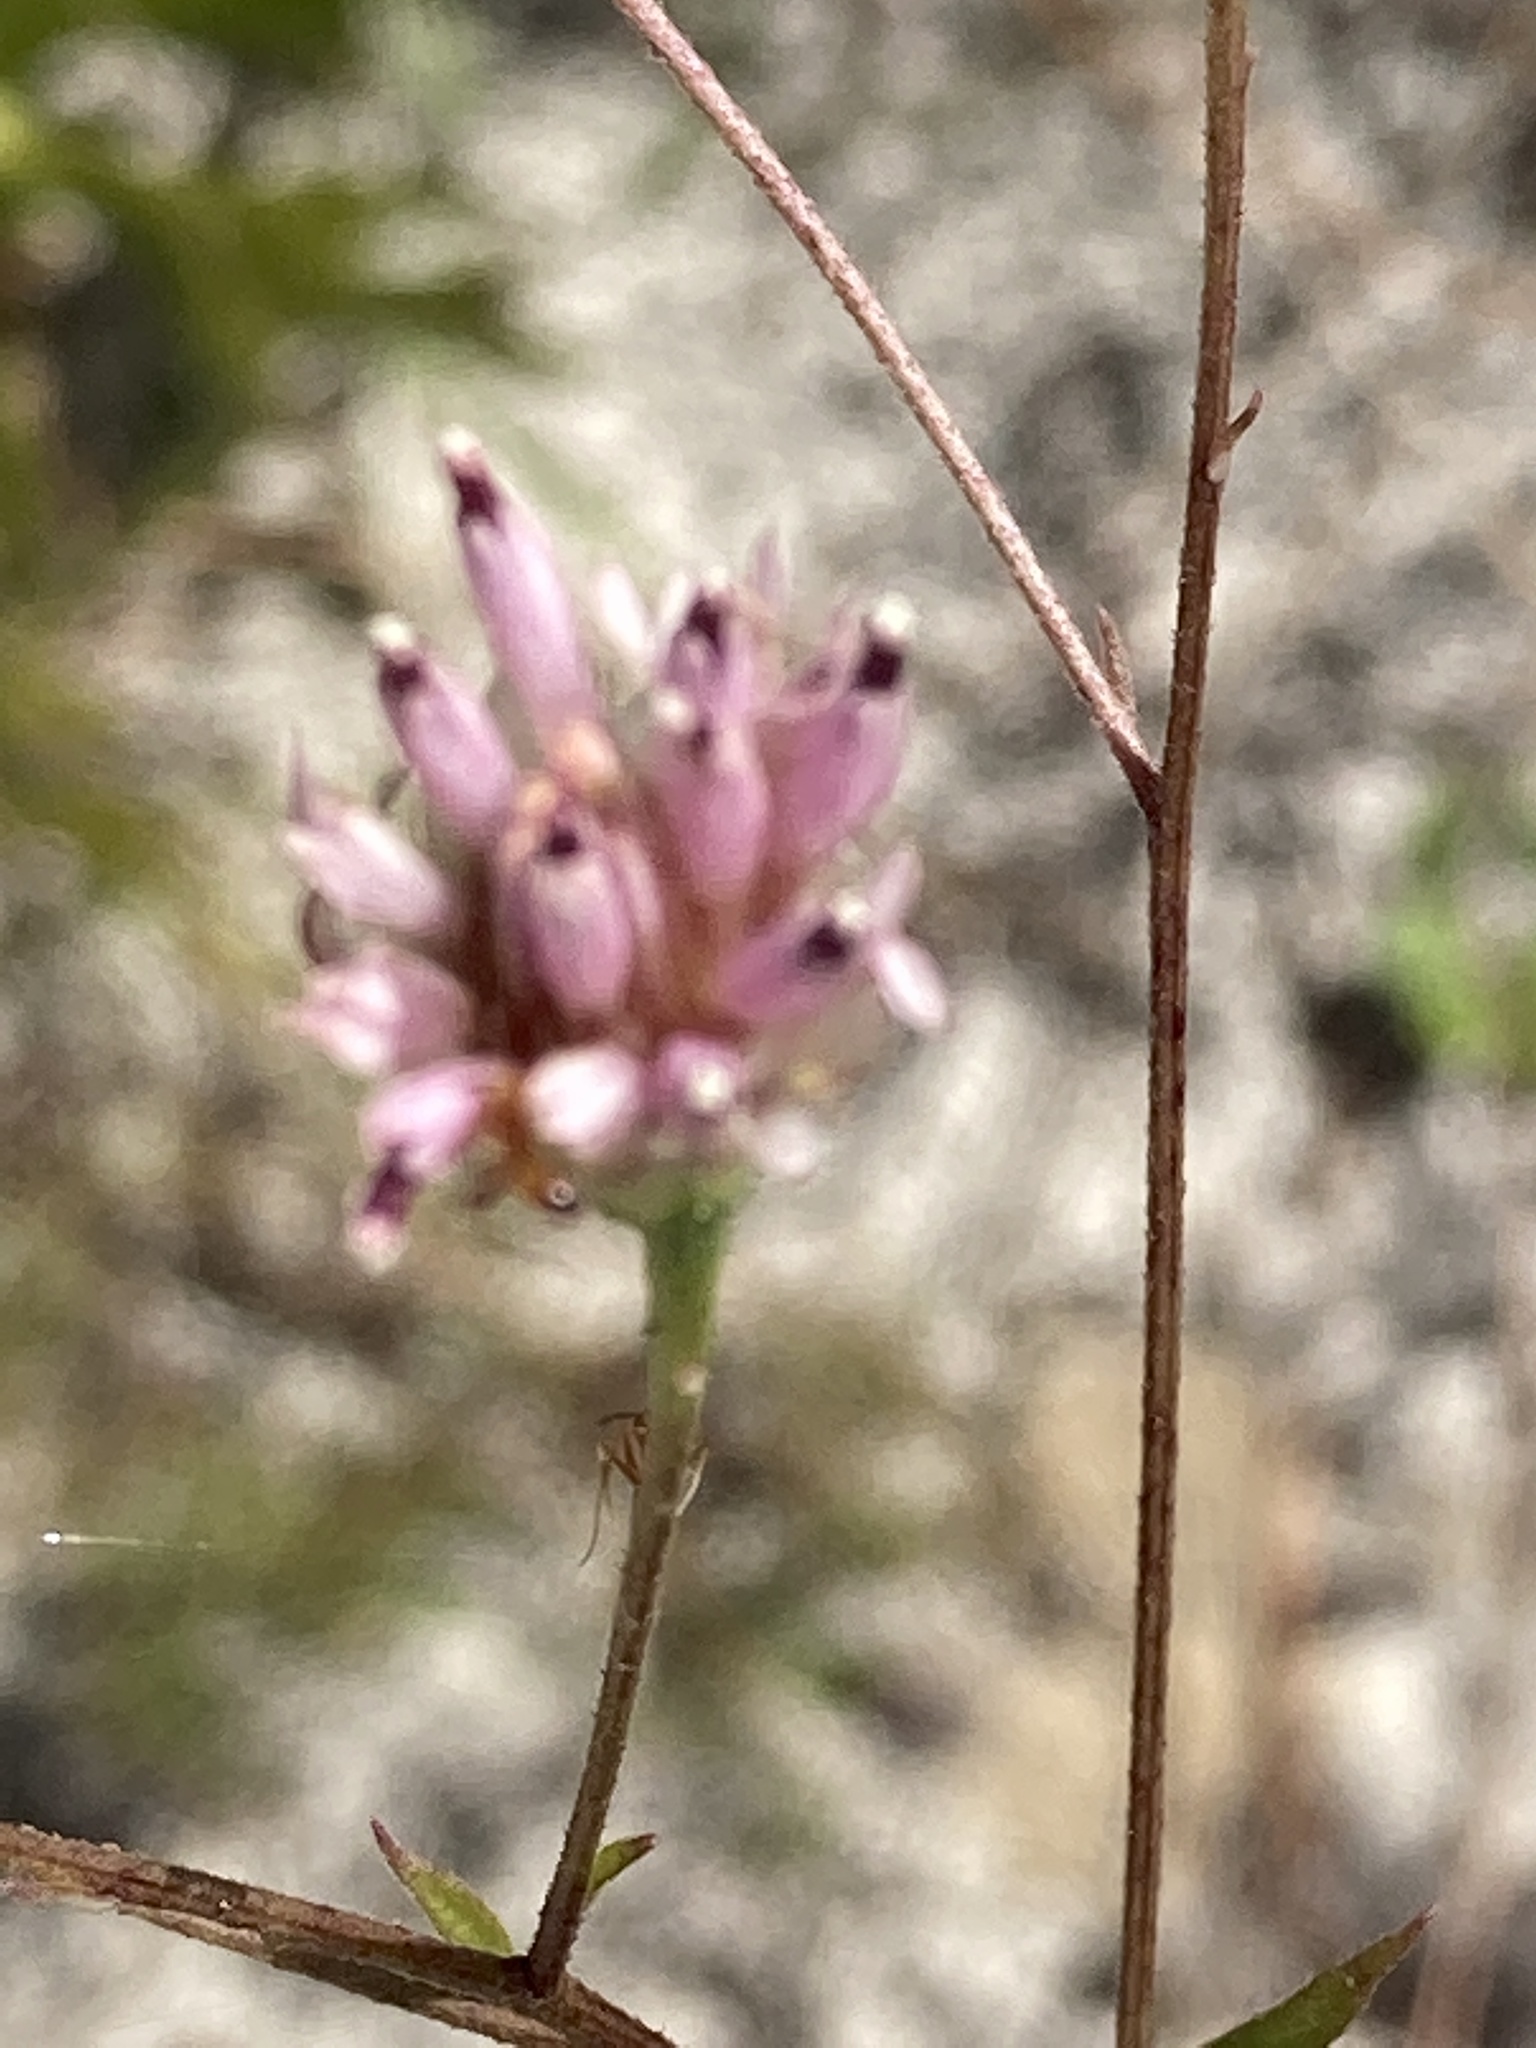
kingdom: Plantae
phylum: Tracheophyta
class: Magnoliopsida
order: Asterales
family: Asteraceae
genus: Palafoxia
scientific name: Palafoxia integrifolia
